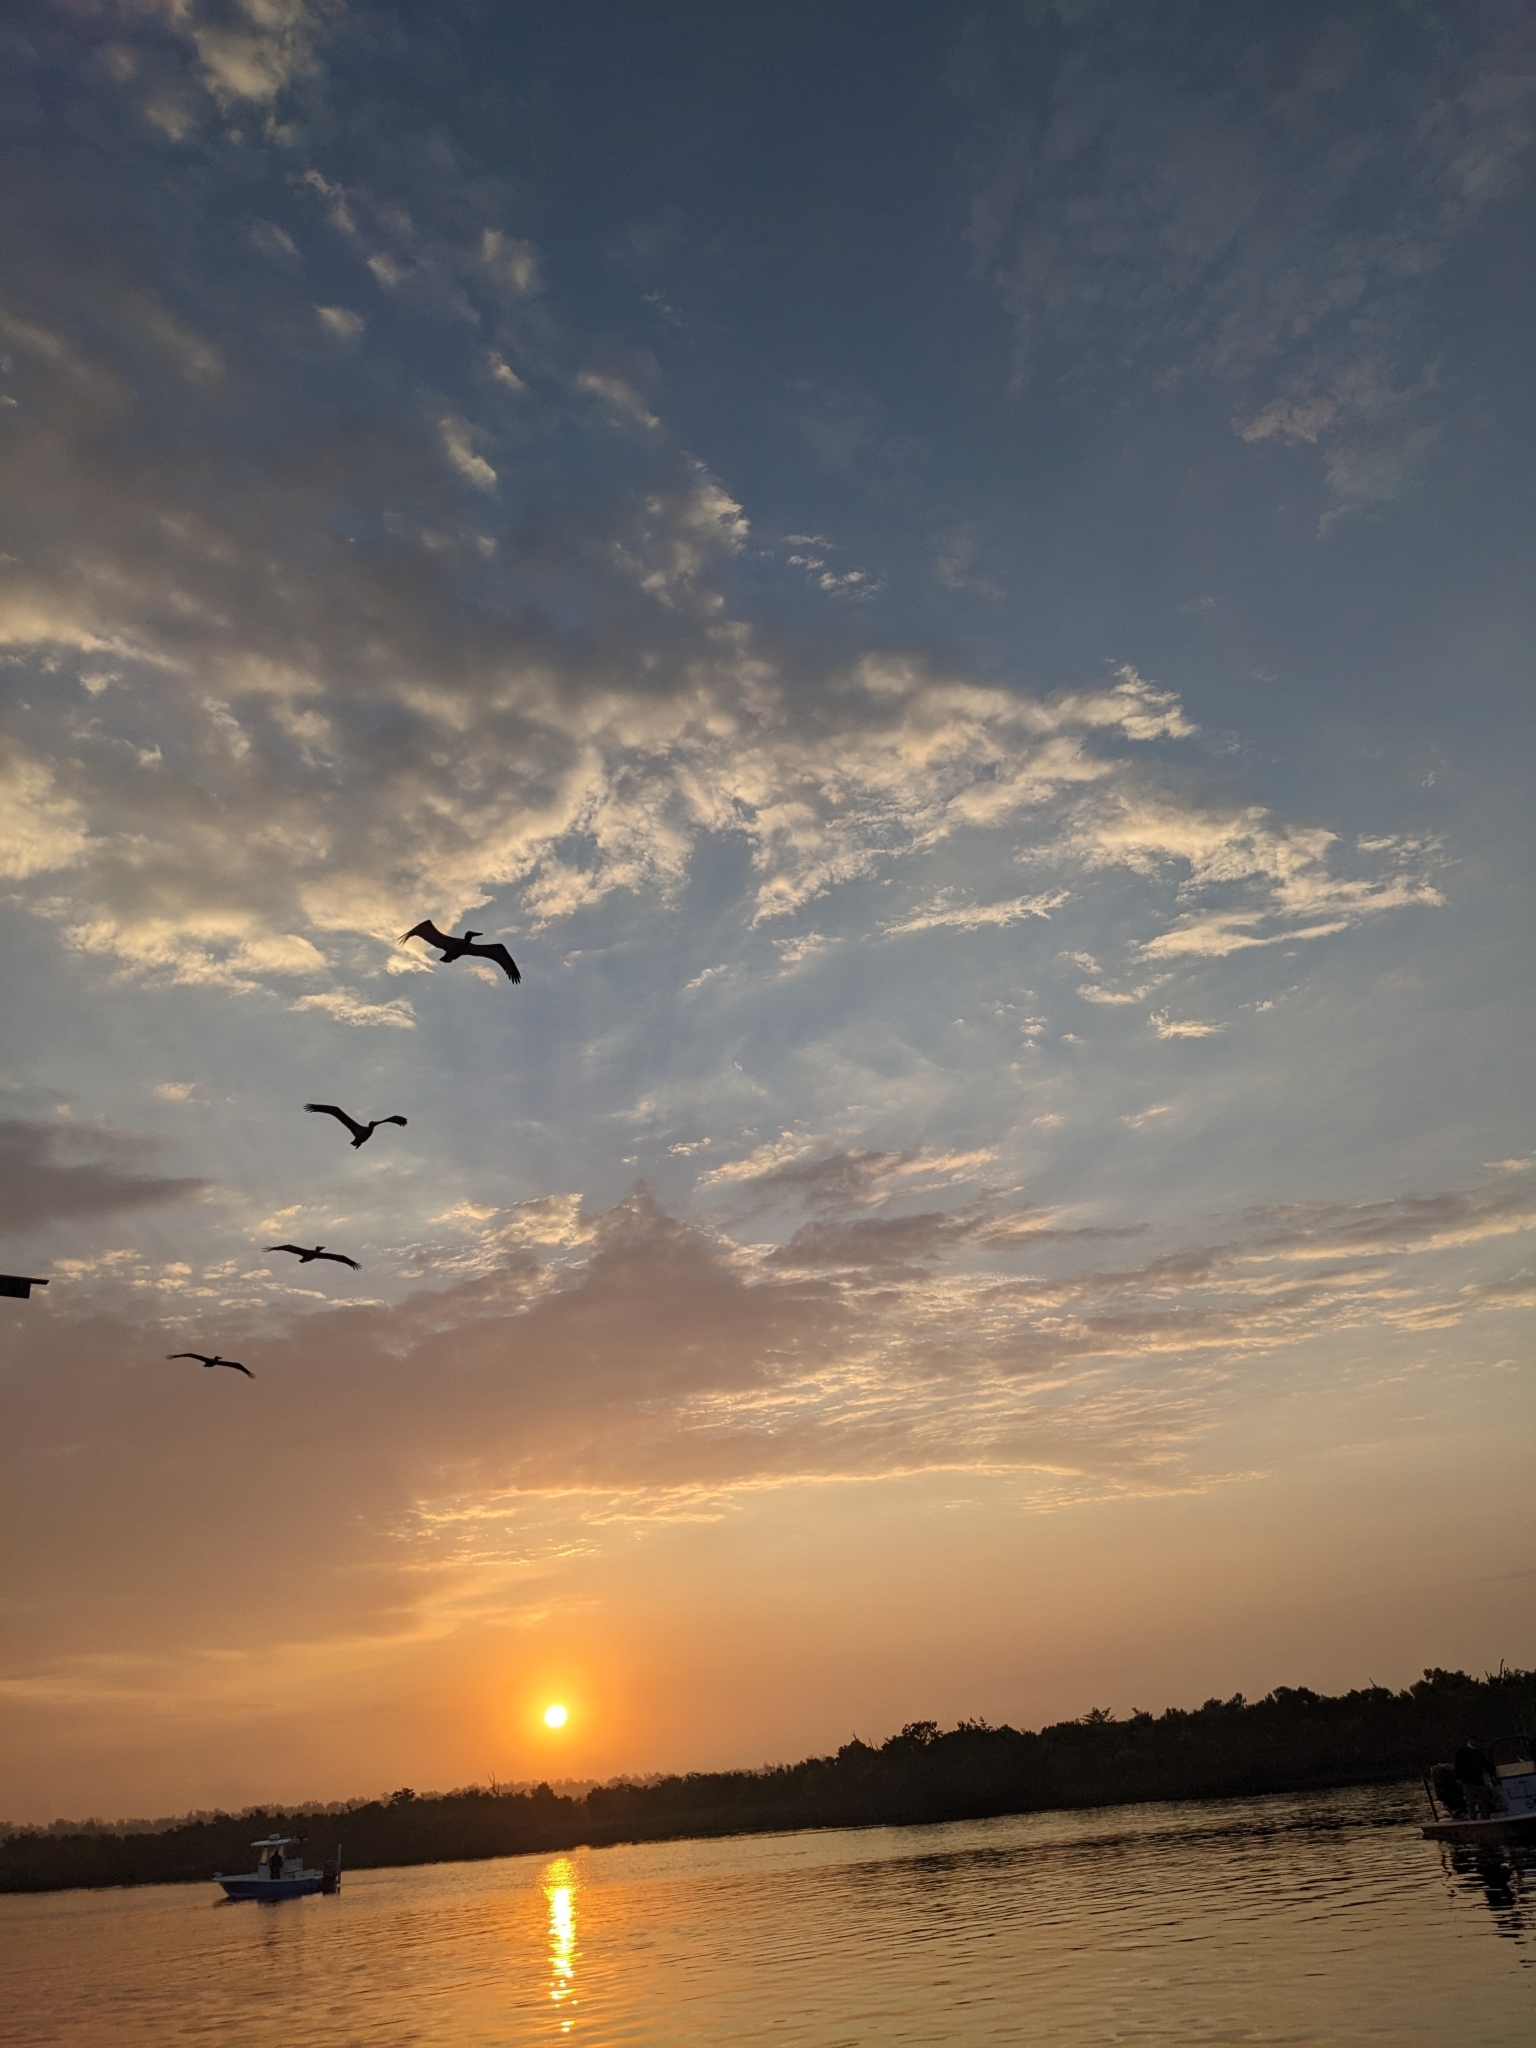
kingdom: Animalia
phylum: Chordata
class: Aves
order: Pelecaniformes
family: Pelecanidae
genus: Pelecanus
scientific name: Pelecanus occidentalis
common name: Brown pelican
